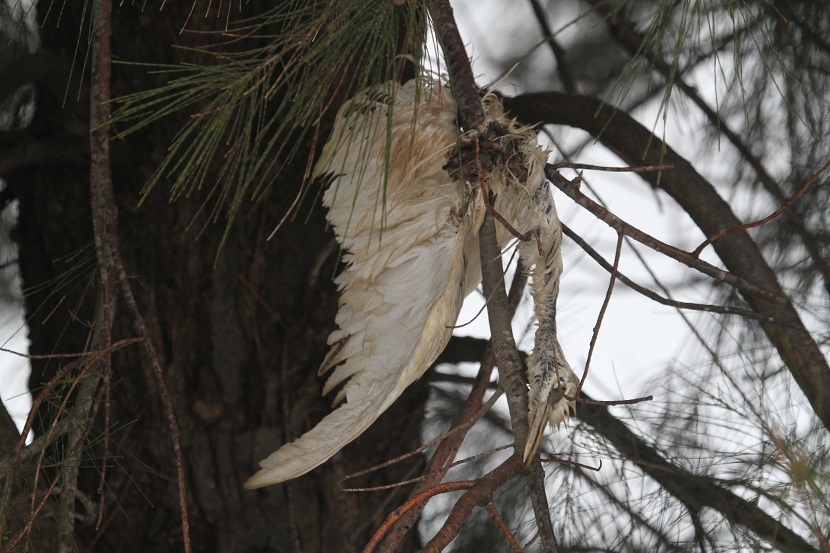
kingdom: Animalia
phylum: Chordata
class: Aves
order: Pelecaniformes
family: Ardeidae
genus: Bubulcus
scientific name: Bubulcus ibis
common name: Cattle egret
